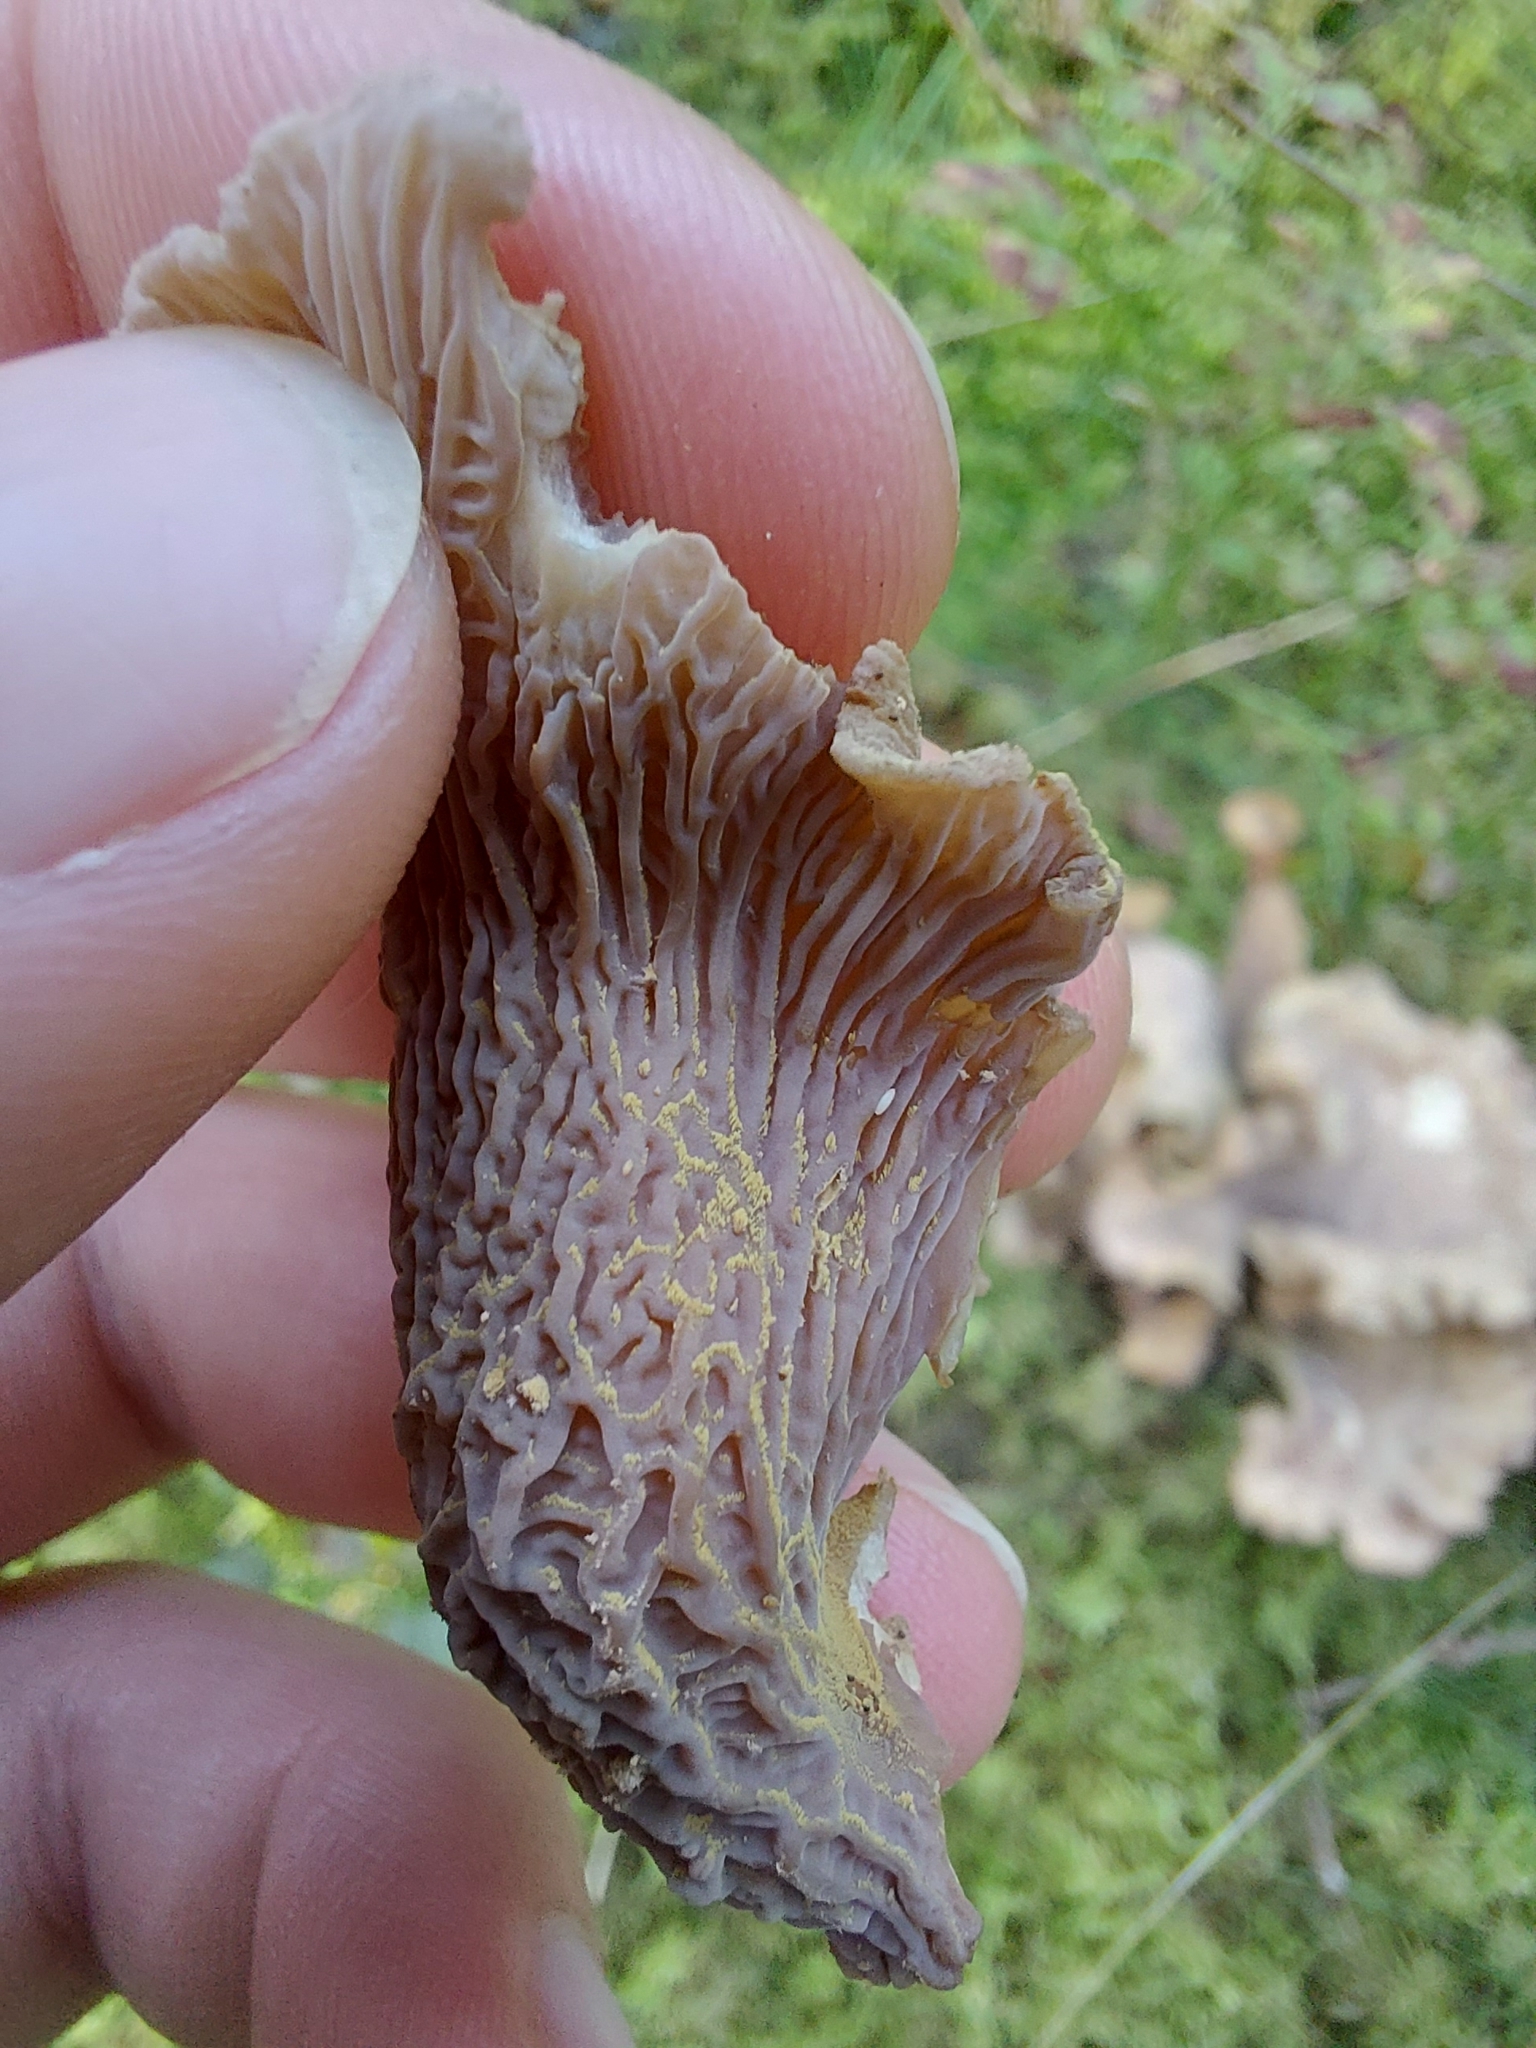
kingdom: Fungi
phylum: Basidiomycota
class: Agaricomycetes
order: Gomphales
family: Gomphaceae
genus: Gomphus
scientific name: Gomphus clavatus
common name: Pig's ear
